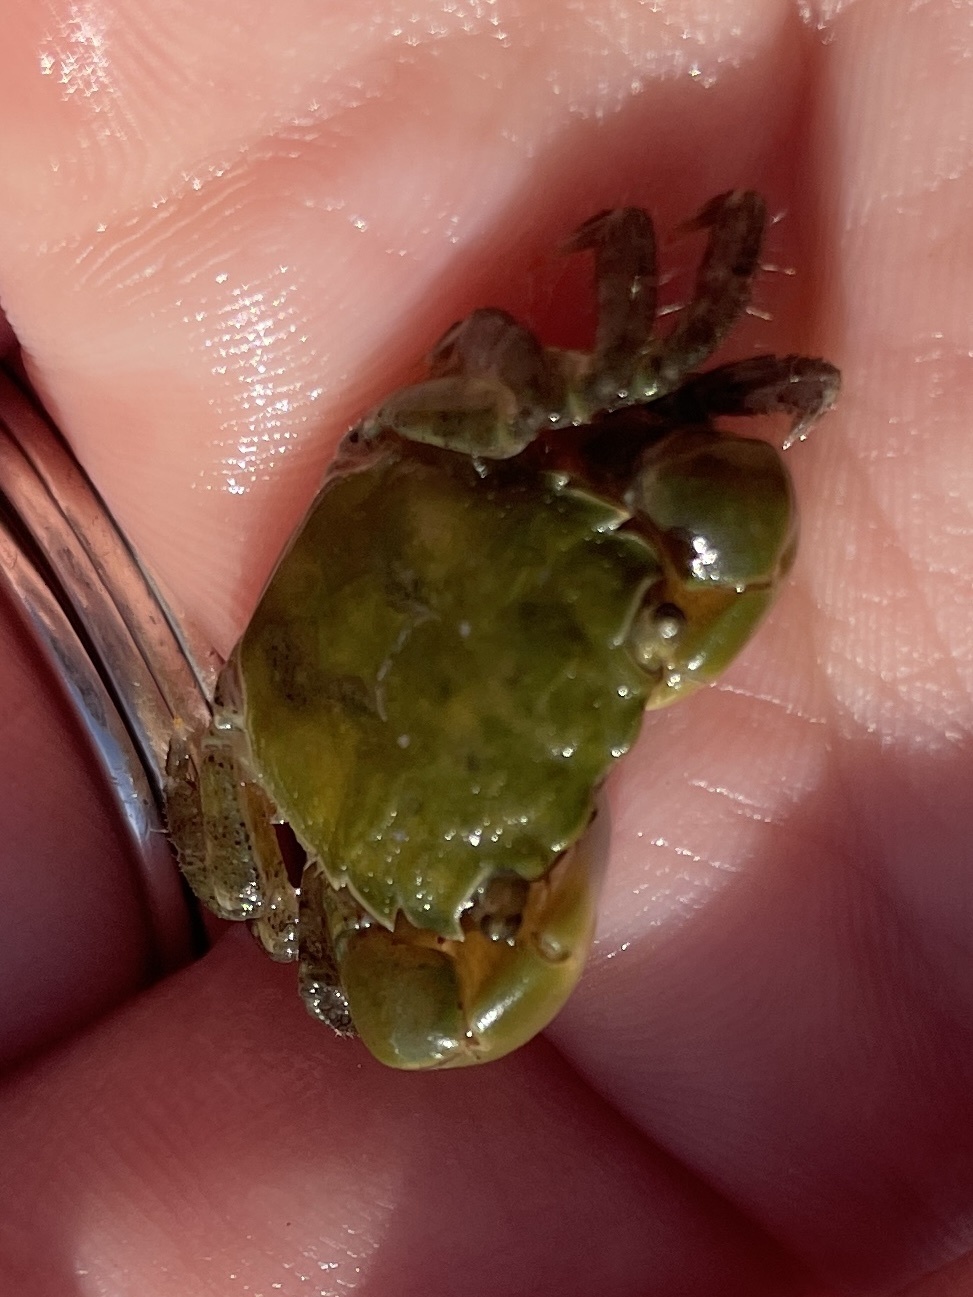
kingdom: Animalia
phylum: Arthropoda
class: Malacostraca
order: Decapoda
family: Varunidae
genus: Hemigrapsus
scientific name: Hemigrapsus oregonensis
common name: Yellow shore crab
